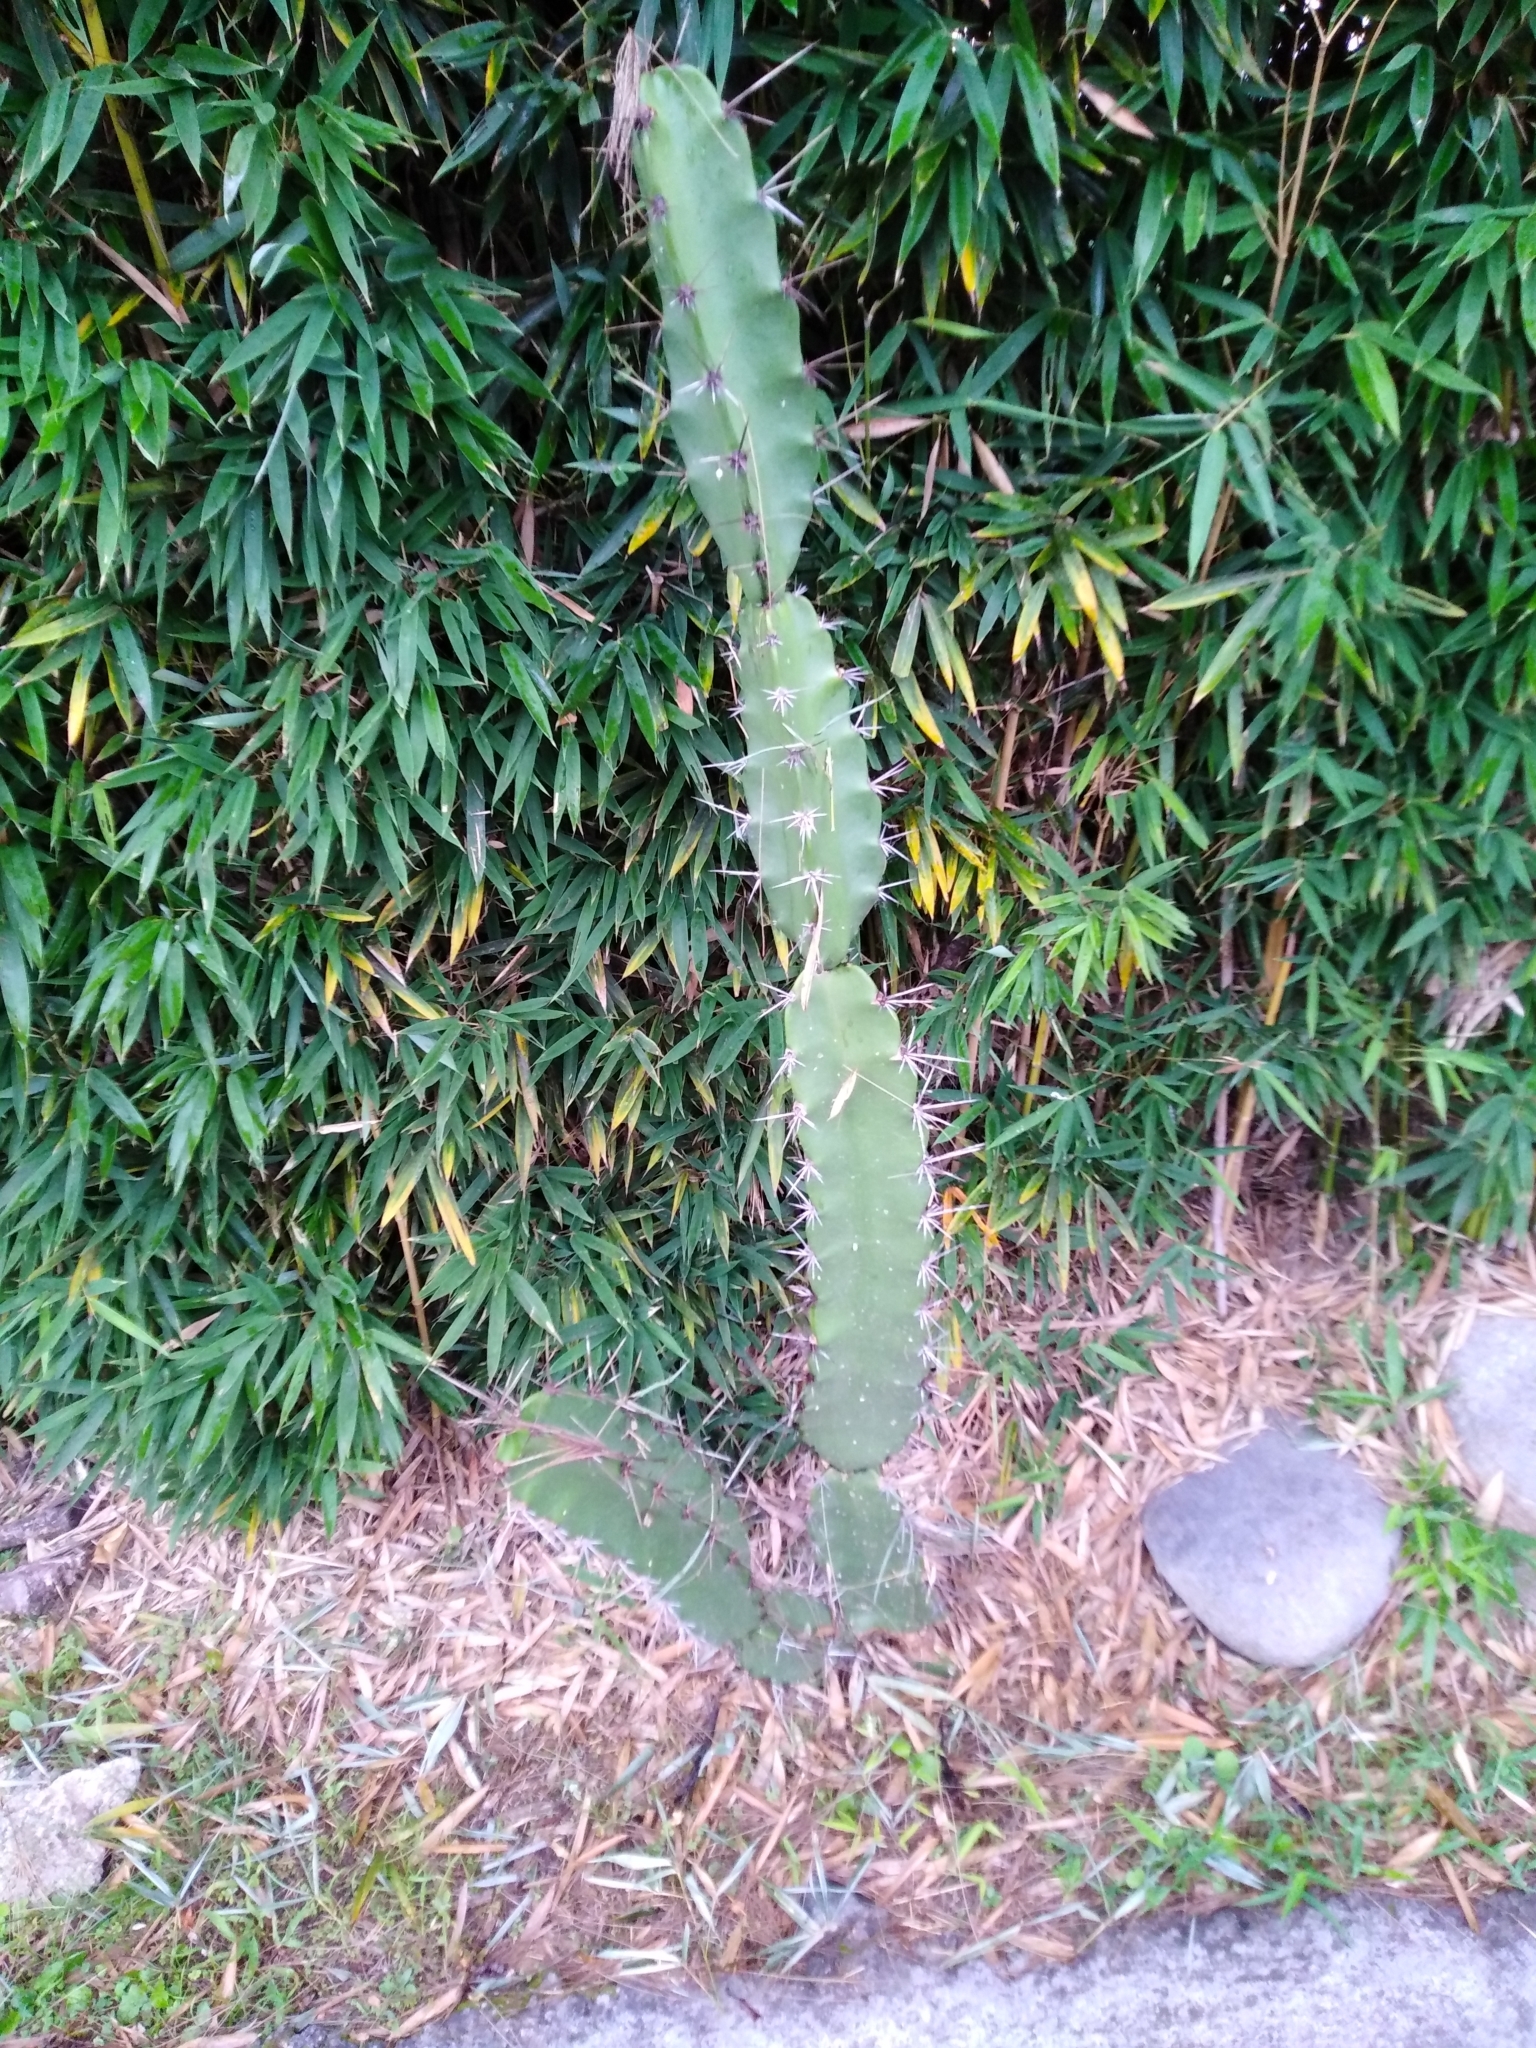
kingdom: Plantae
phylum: Tracheophyta
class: Magnoliopsida
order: Caryophyllales
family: Cactaceae
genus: Acanthocereus
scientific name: Acanthocereus tetragonus
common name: Triangle cactus
